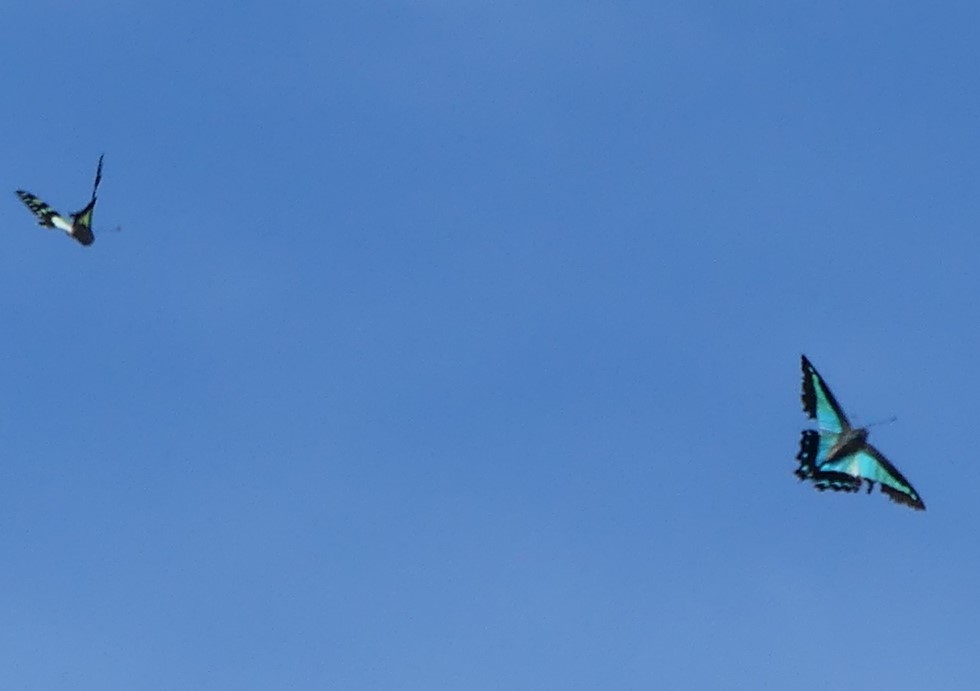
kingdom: Animalia
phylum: Arthropoda
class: Insecta
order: Lepidoptera
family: Papilionidae
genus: Graphium
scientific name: Graphium
